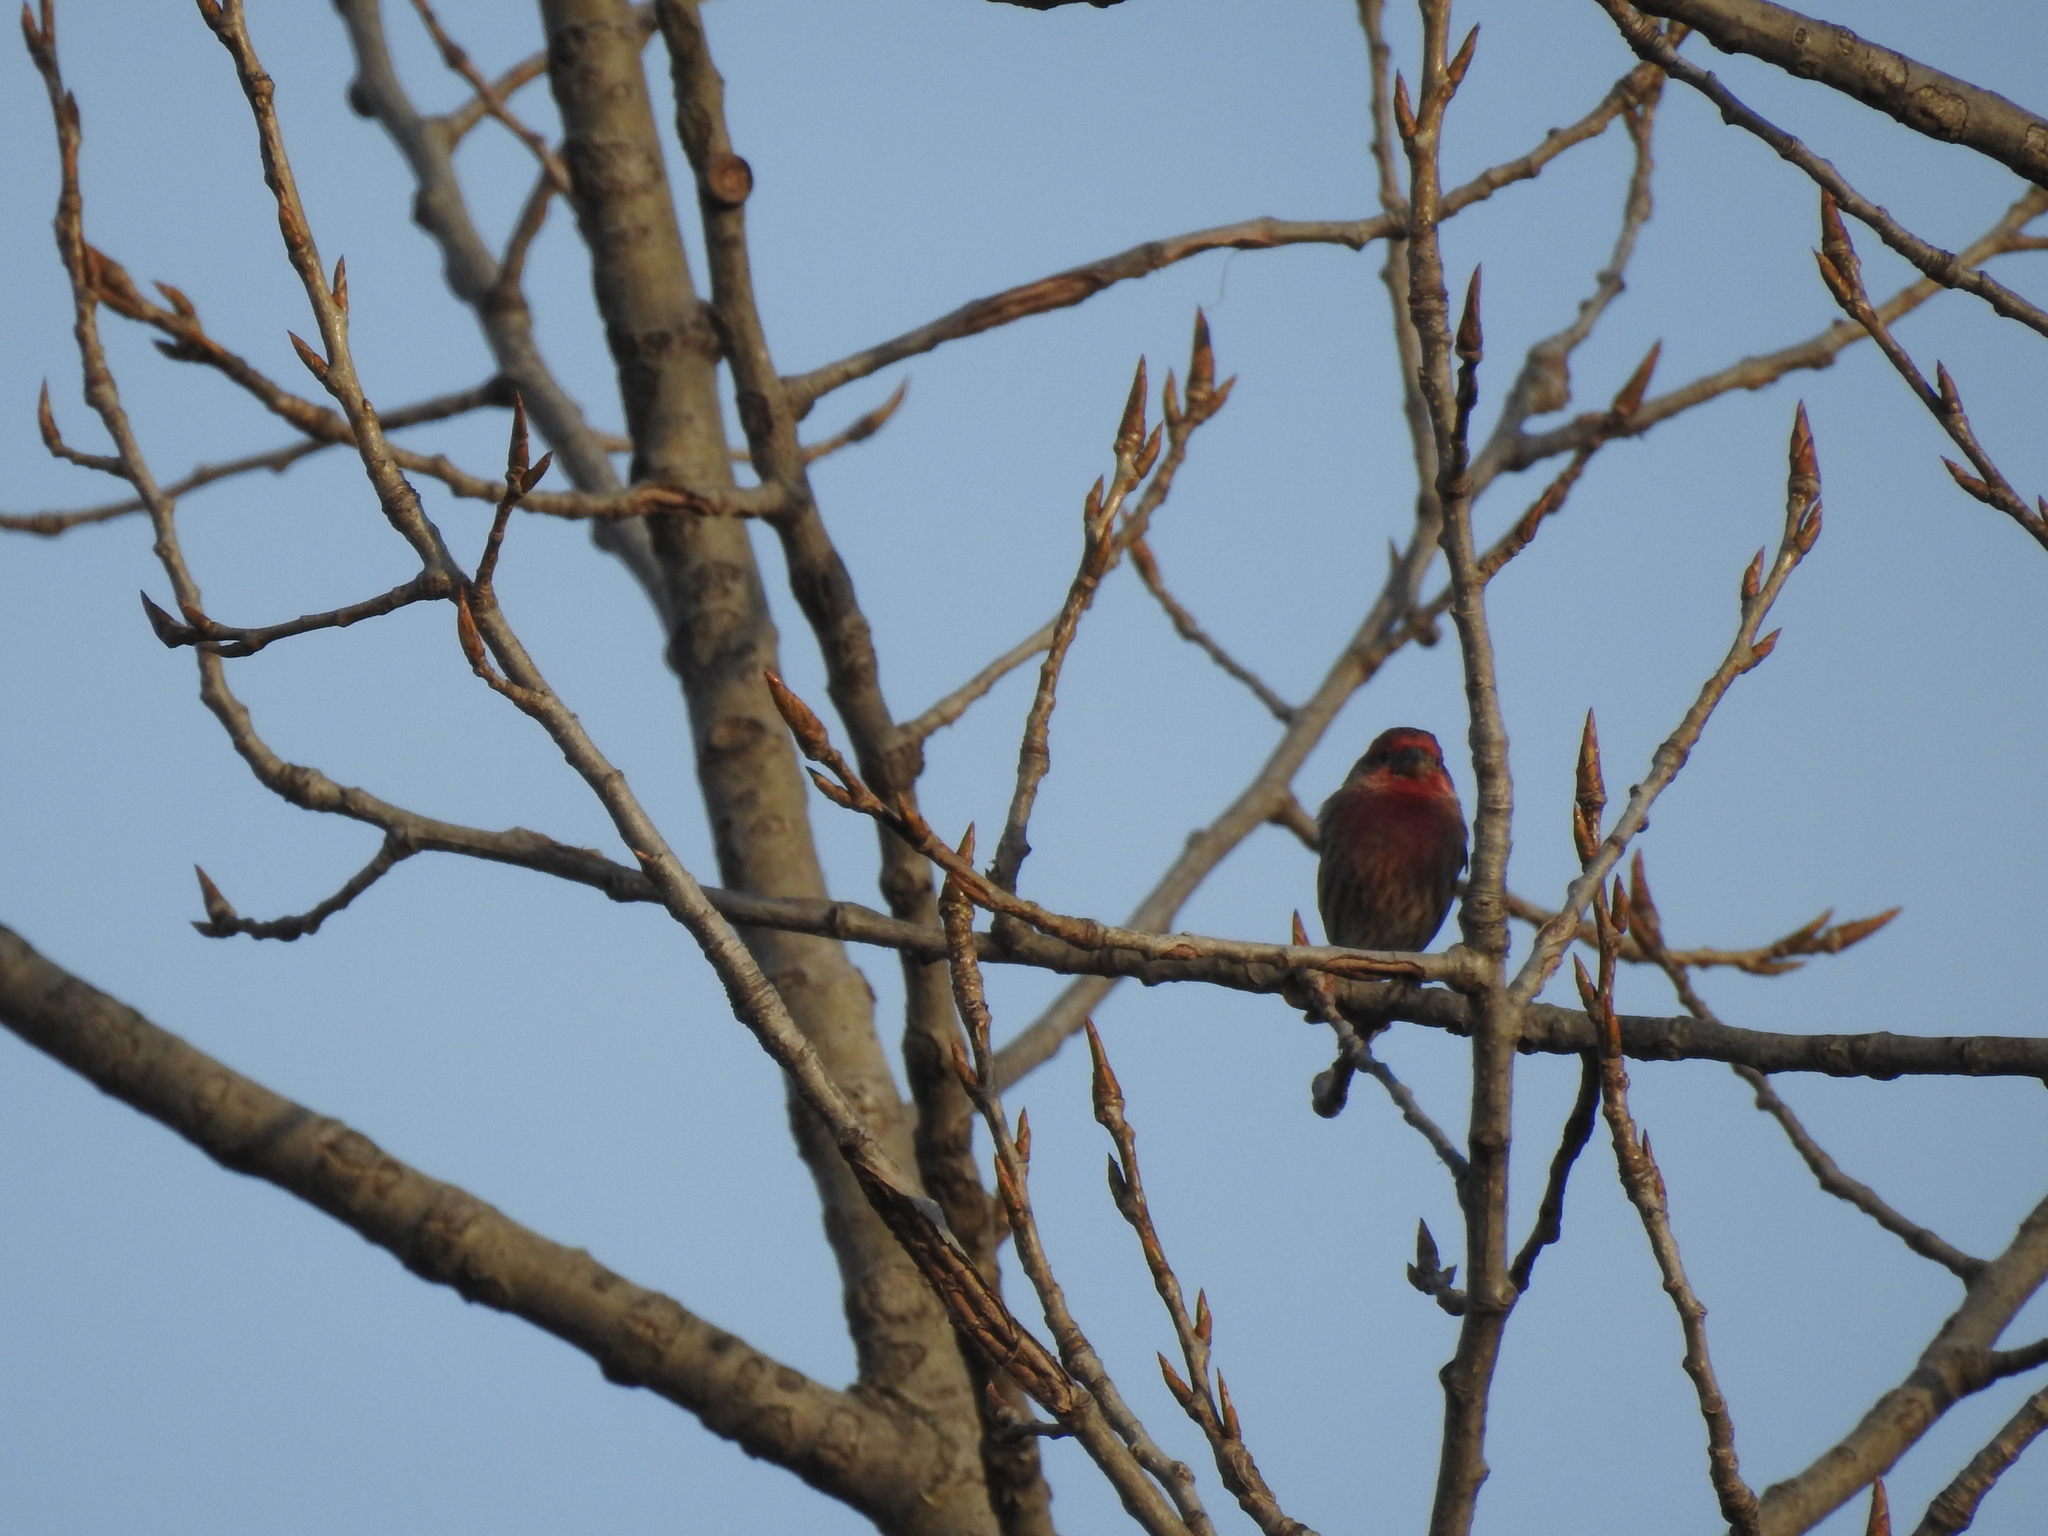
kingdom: Animalia
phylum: Chordata
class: Aves
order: Passeriformes
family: Fringillidae
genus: Haemorhous
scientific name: Haemorhous mexicanus
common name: House finch
